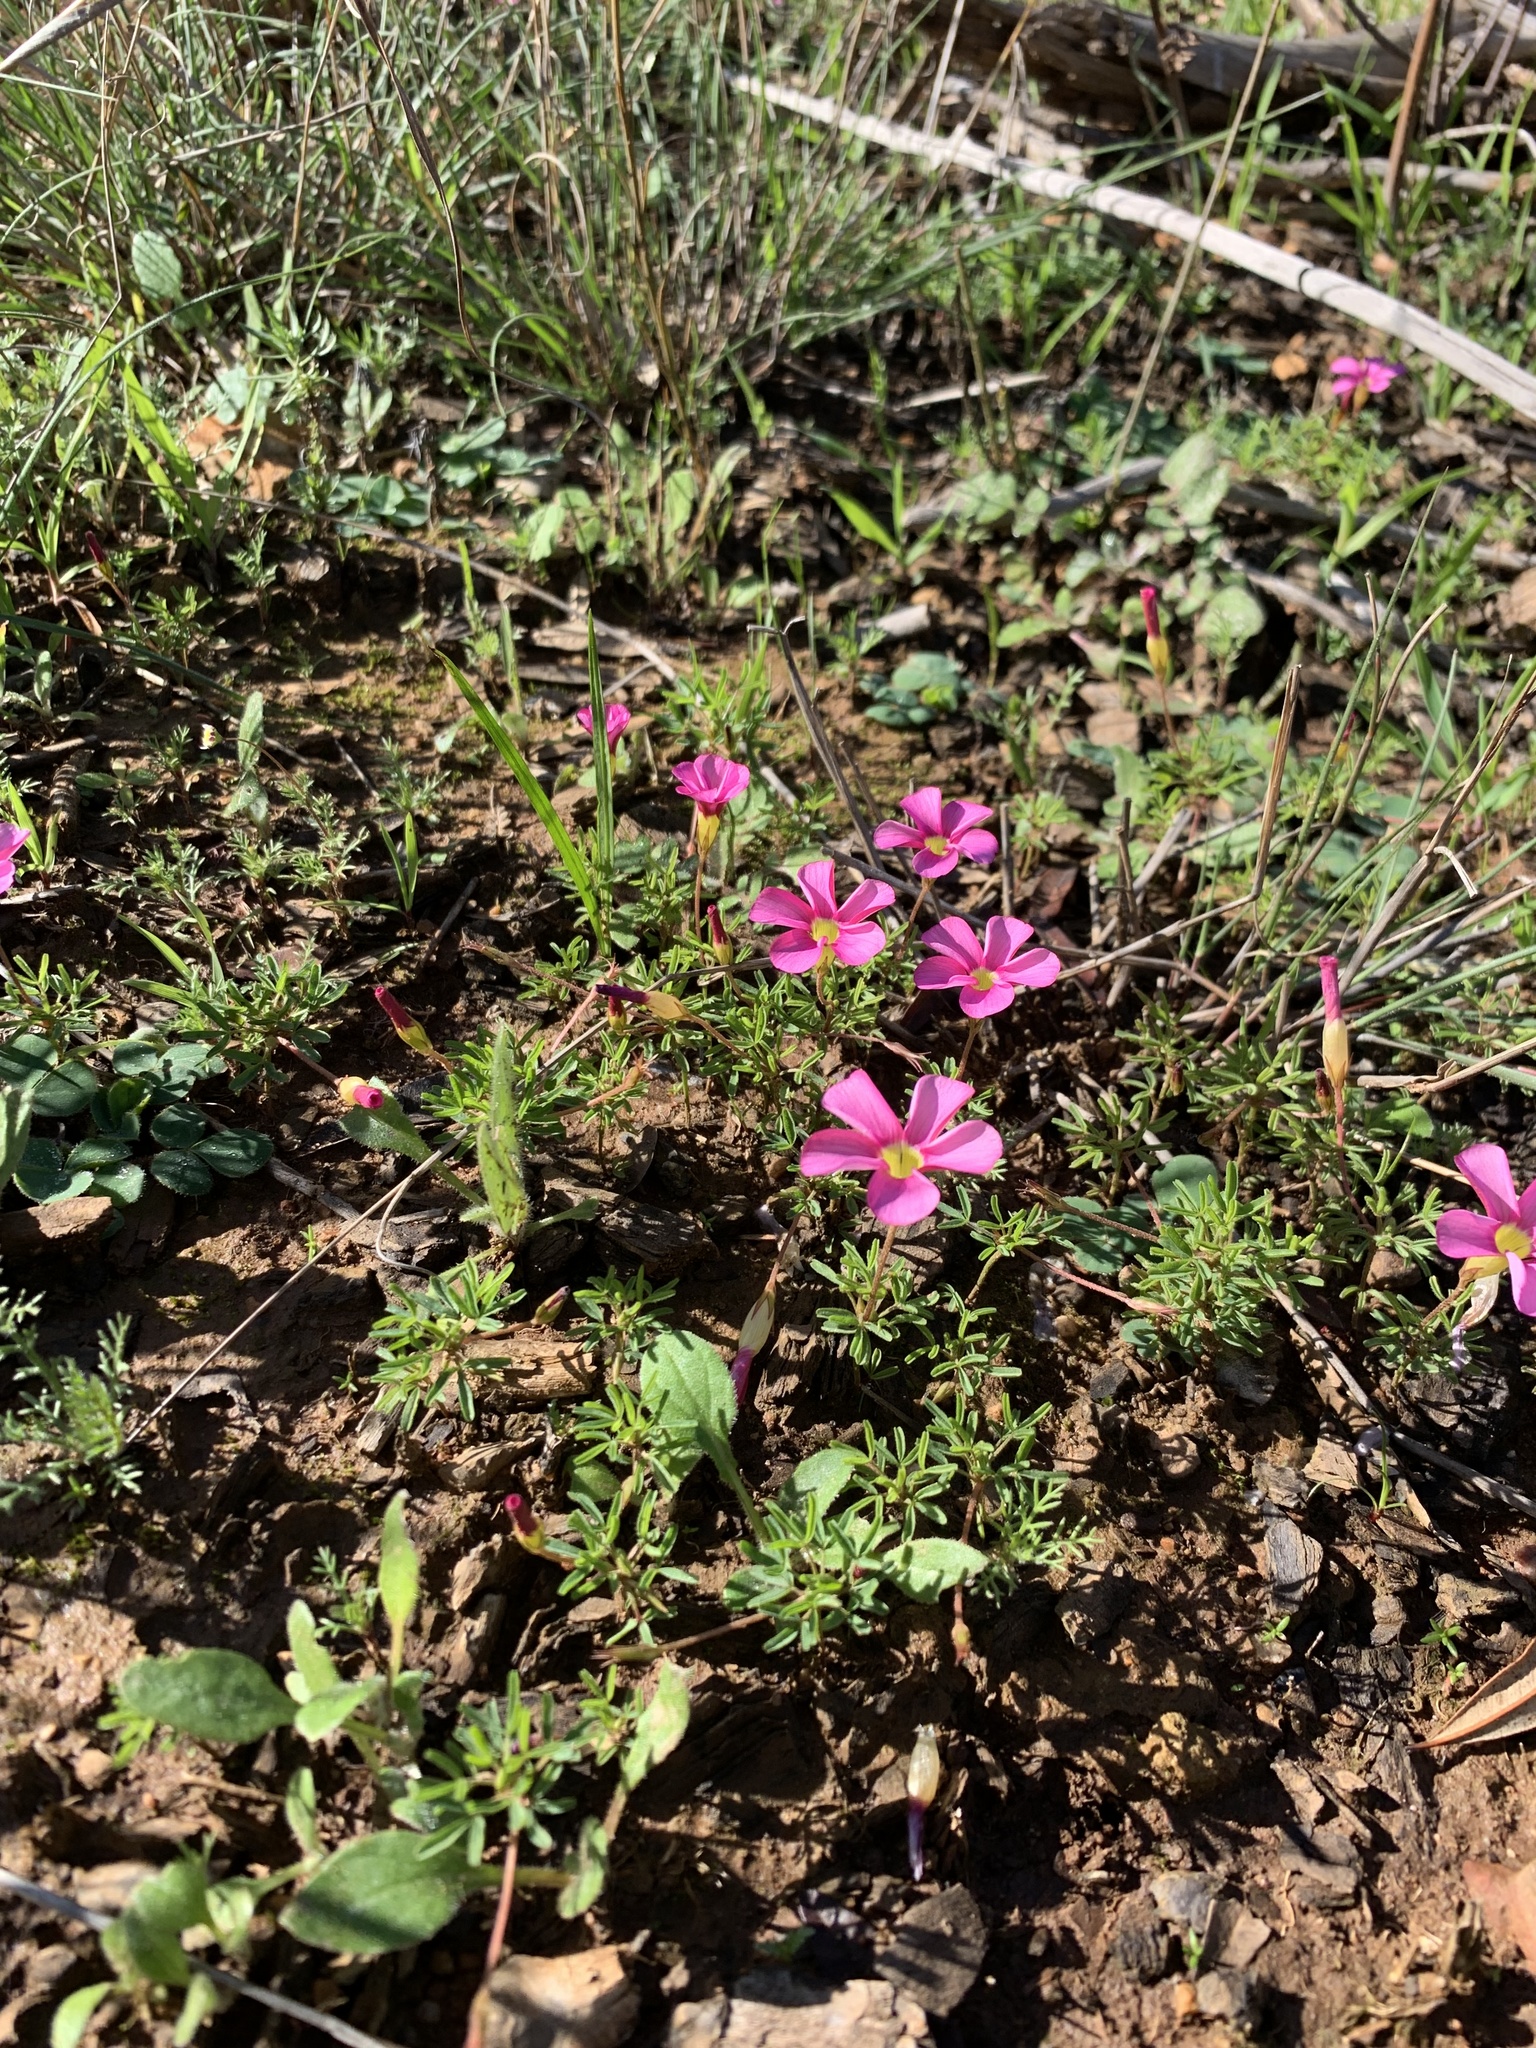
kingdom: Plantae
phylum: Tracheophyta
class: Magnoliopsida
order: Oxalidales
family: Oxalidaceae
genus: Oxalis
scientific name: Oxalis glabra
